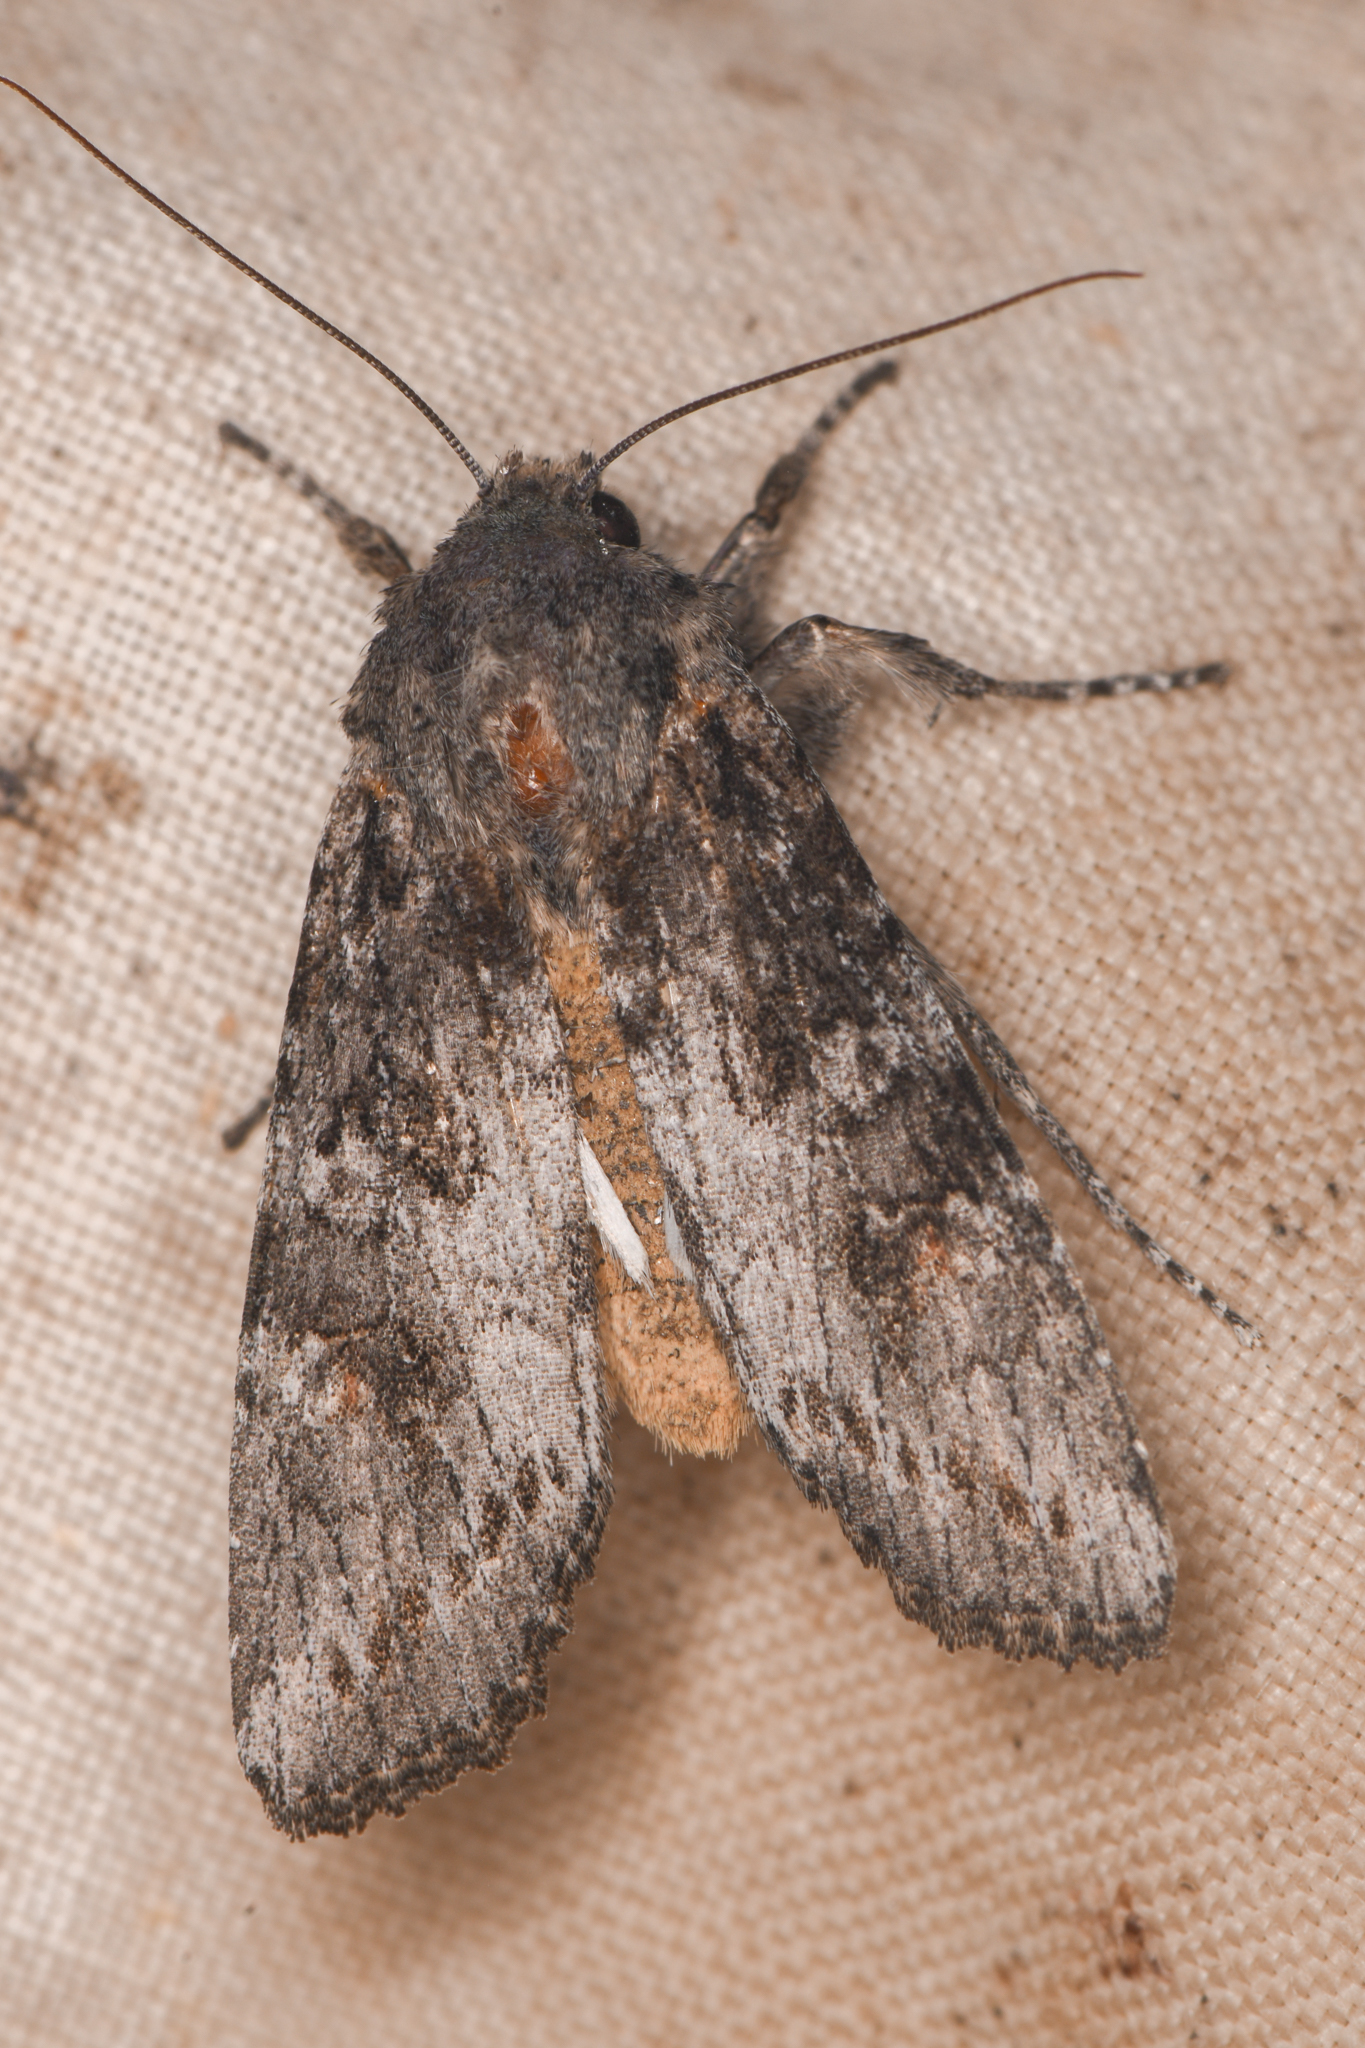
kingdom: Animalia
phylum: Arthropoda
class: Insecta
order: Lepidoptera
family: Noctuidae
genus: Egira
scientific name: Egira curialis
